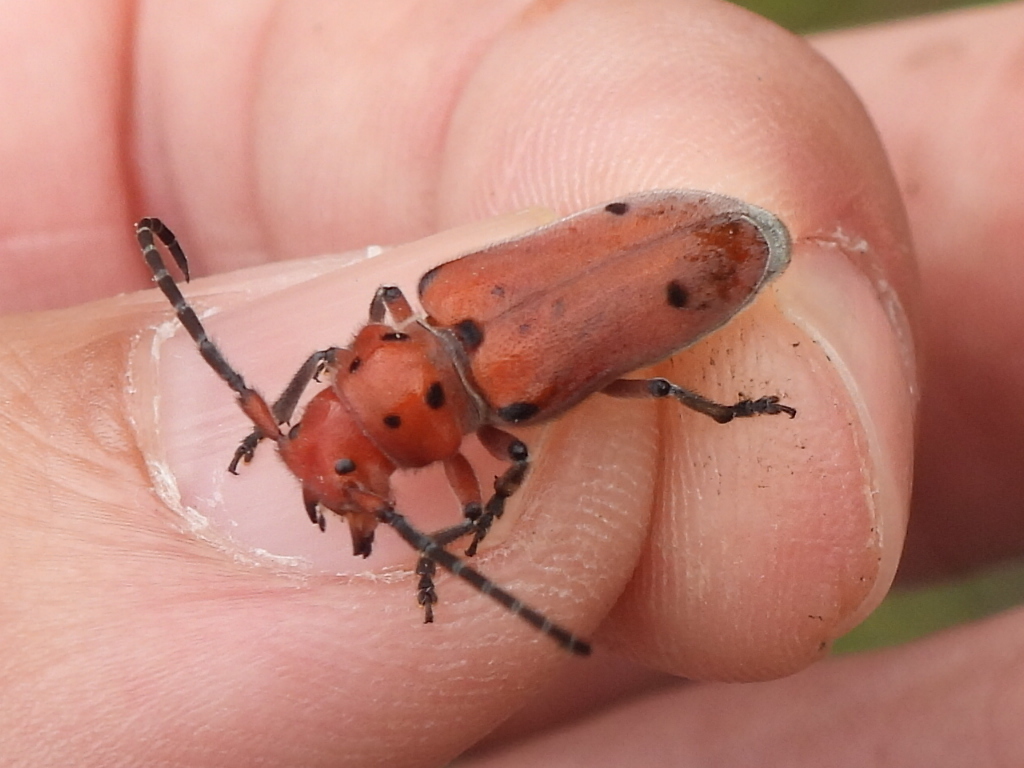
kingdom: Animalia
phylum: Arthropoda
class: Insecta
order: Coleoptera
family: Cerambycidae
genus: Tetraopes
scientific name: Tetraopes texanus
